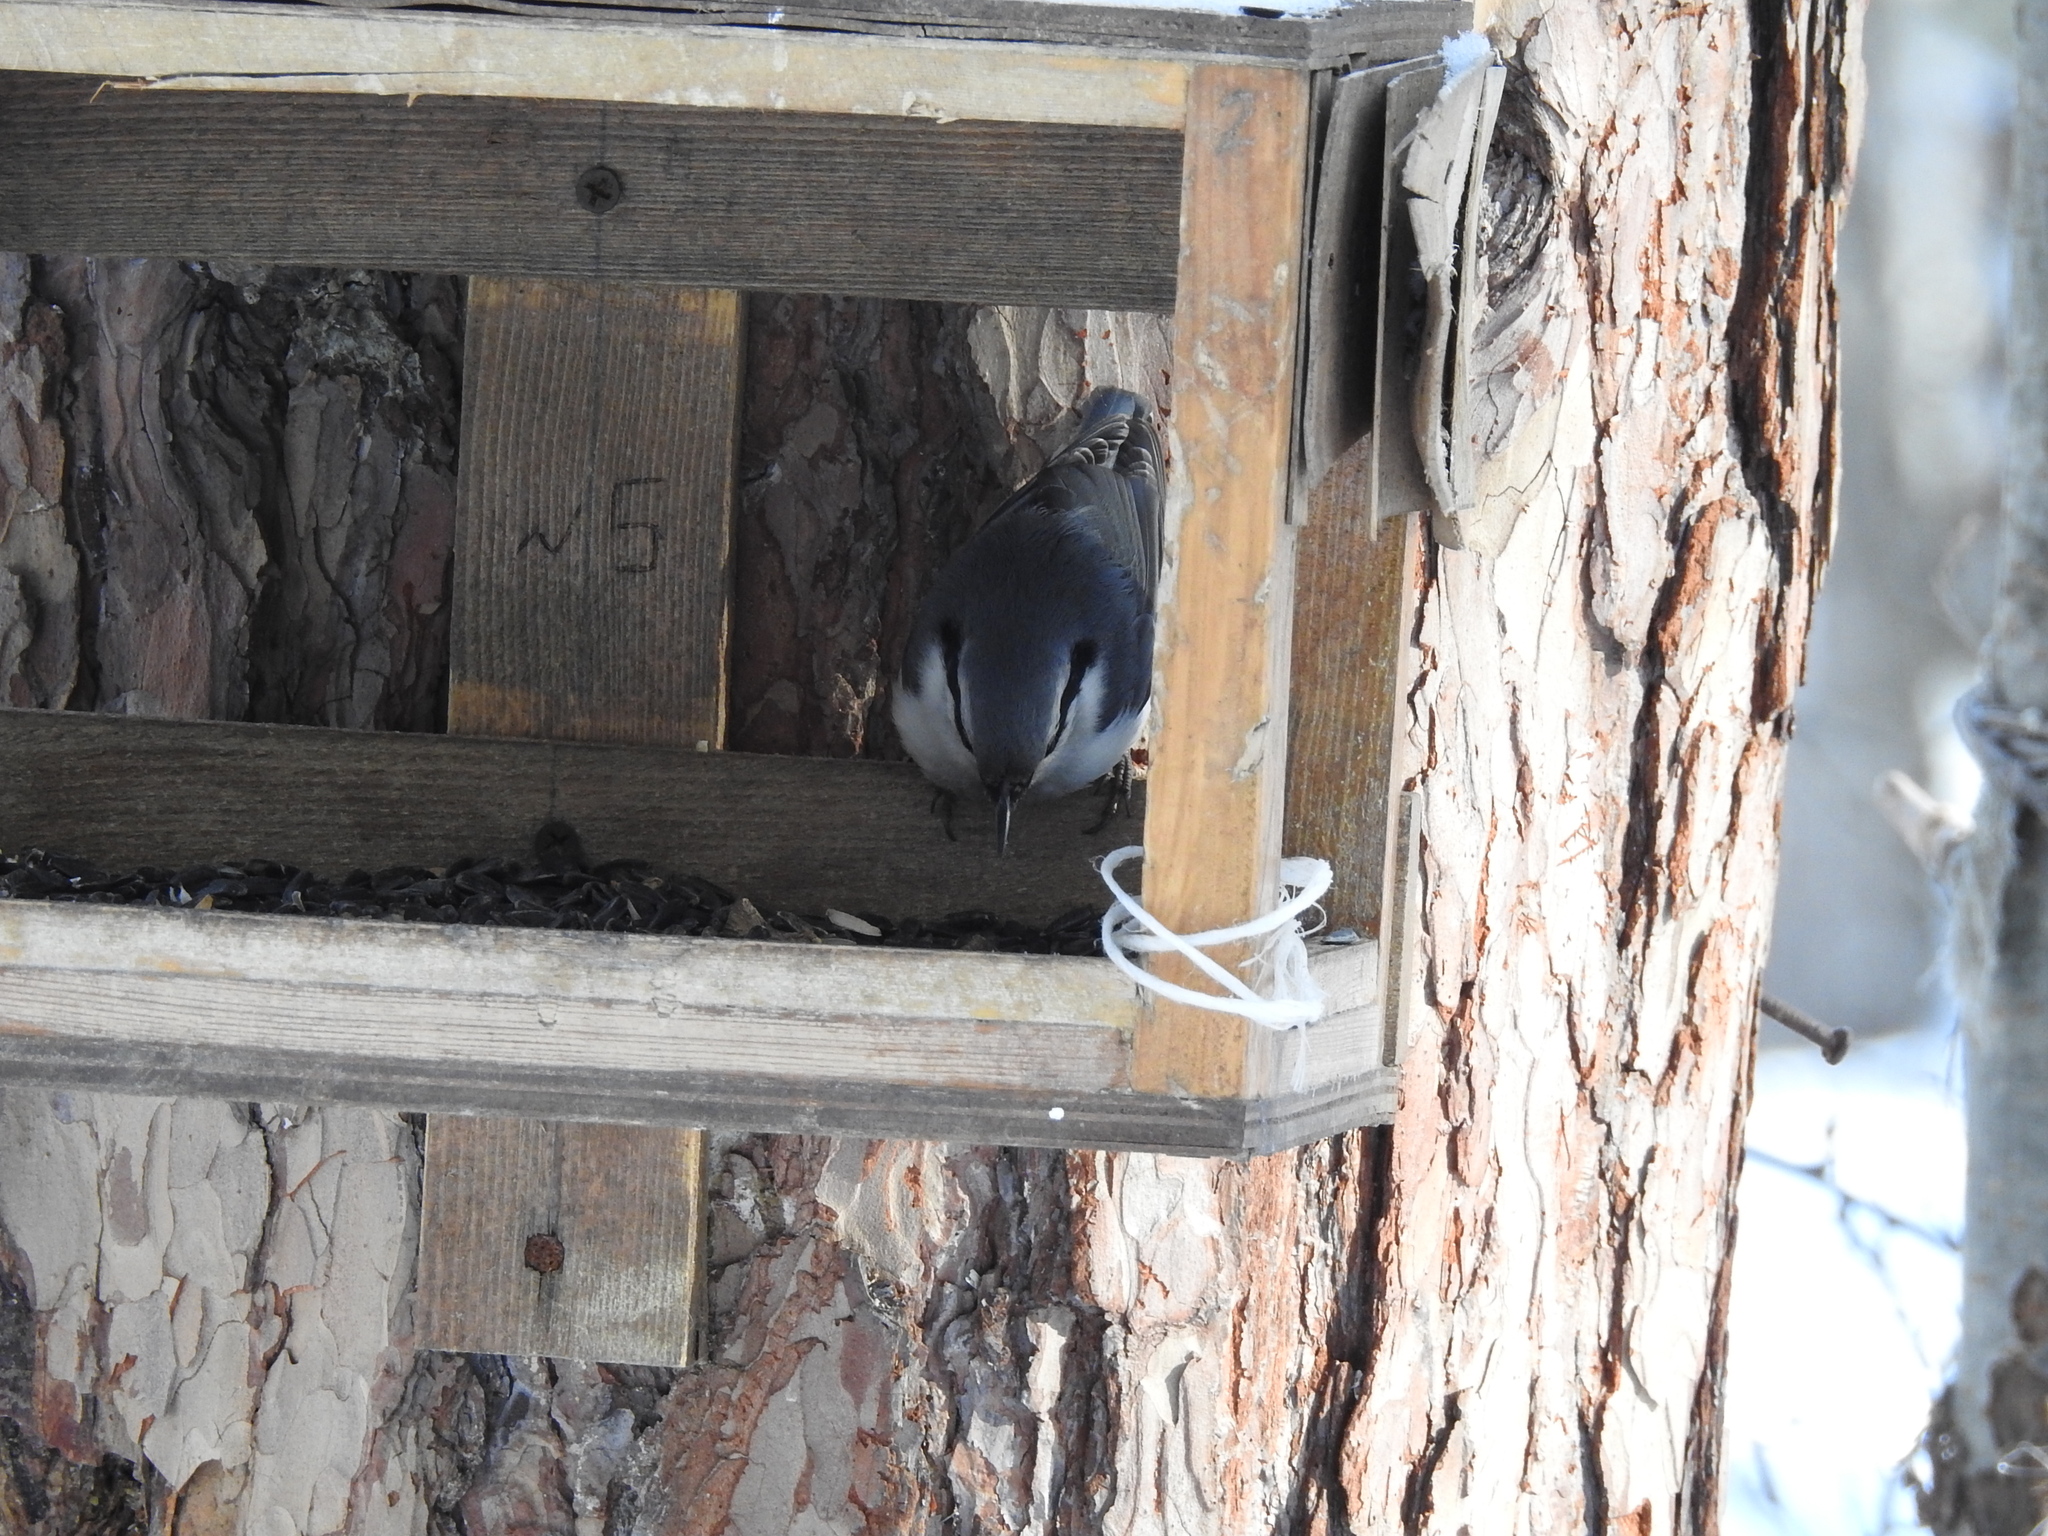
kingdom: Animalia
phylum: Chordata
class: Aves
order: Passeriformes
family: Sittidae
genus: Sitta
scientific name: Sitta europaea
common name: Eurasian nuthatch
